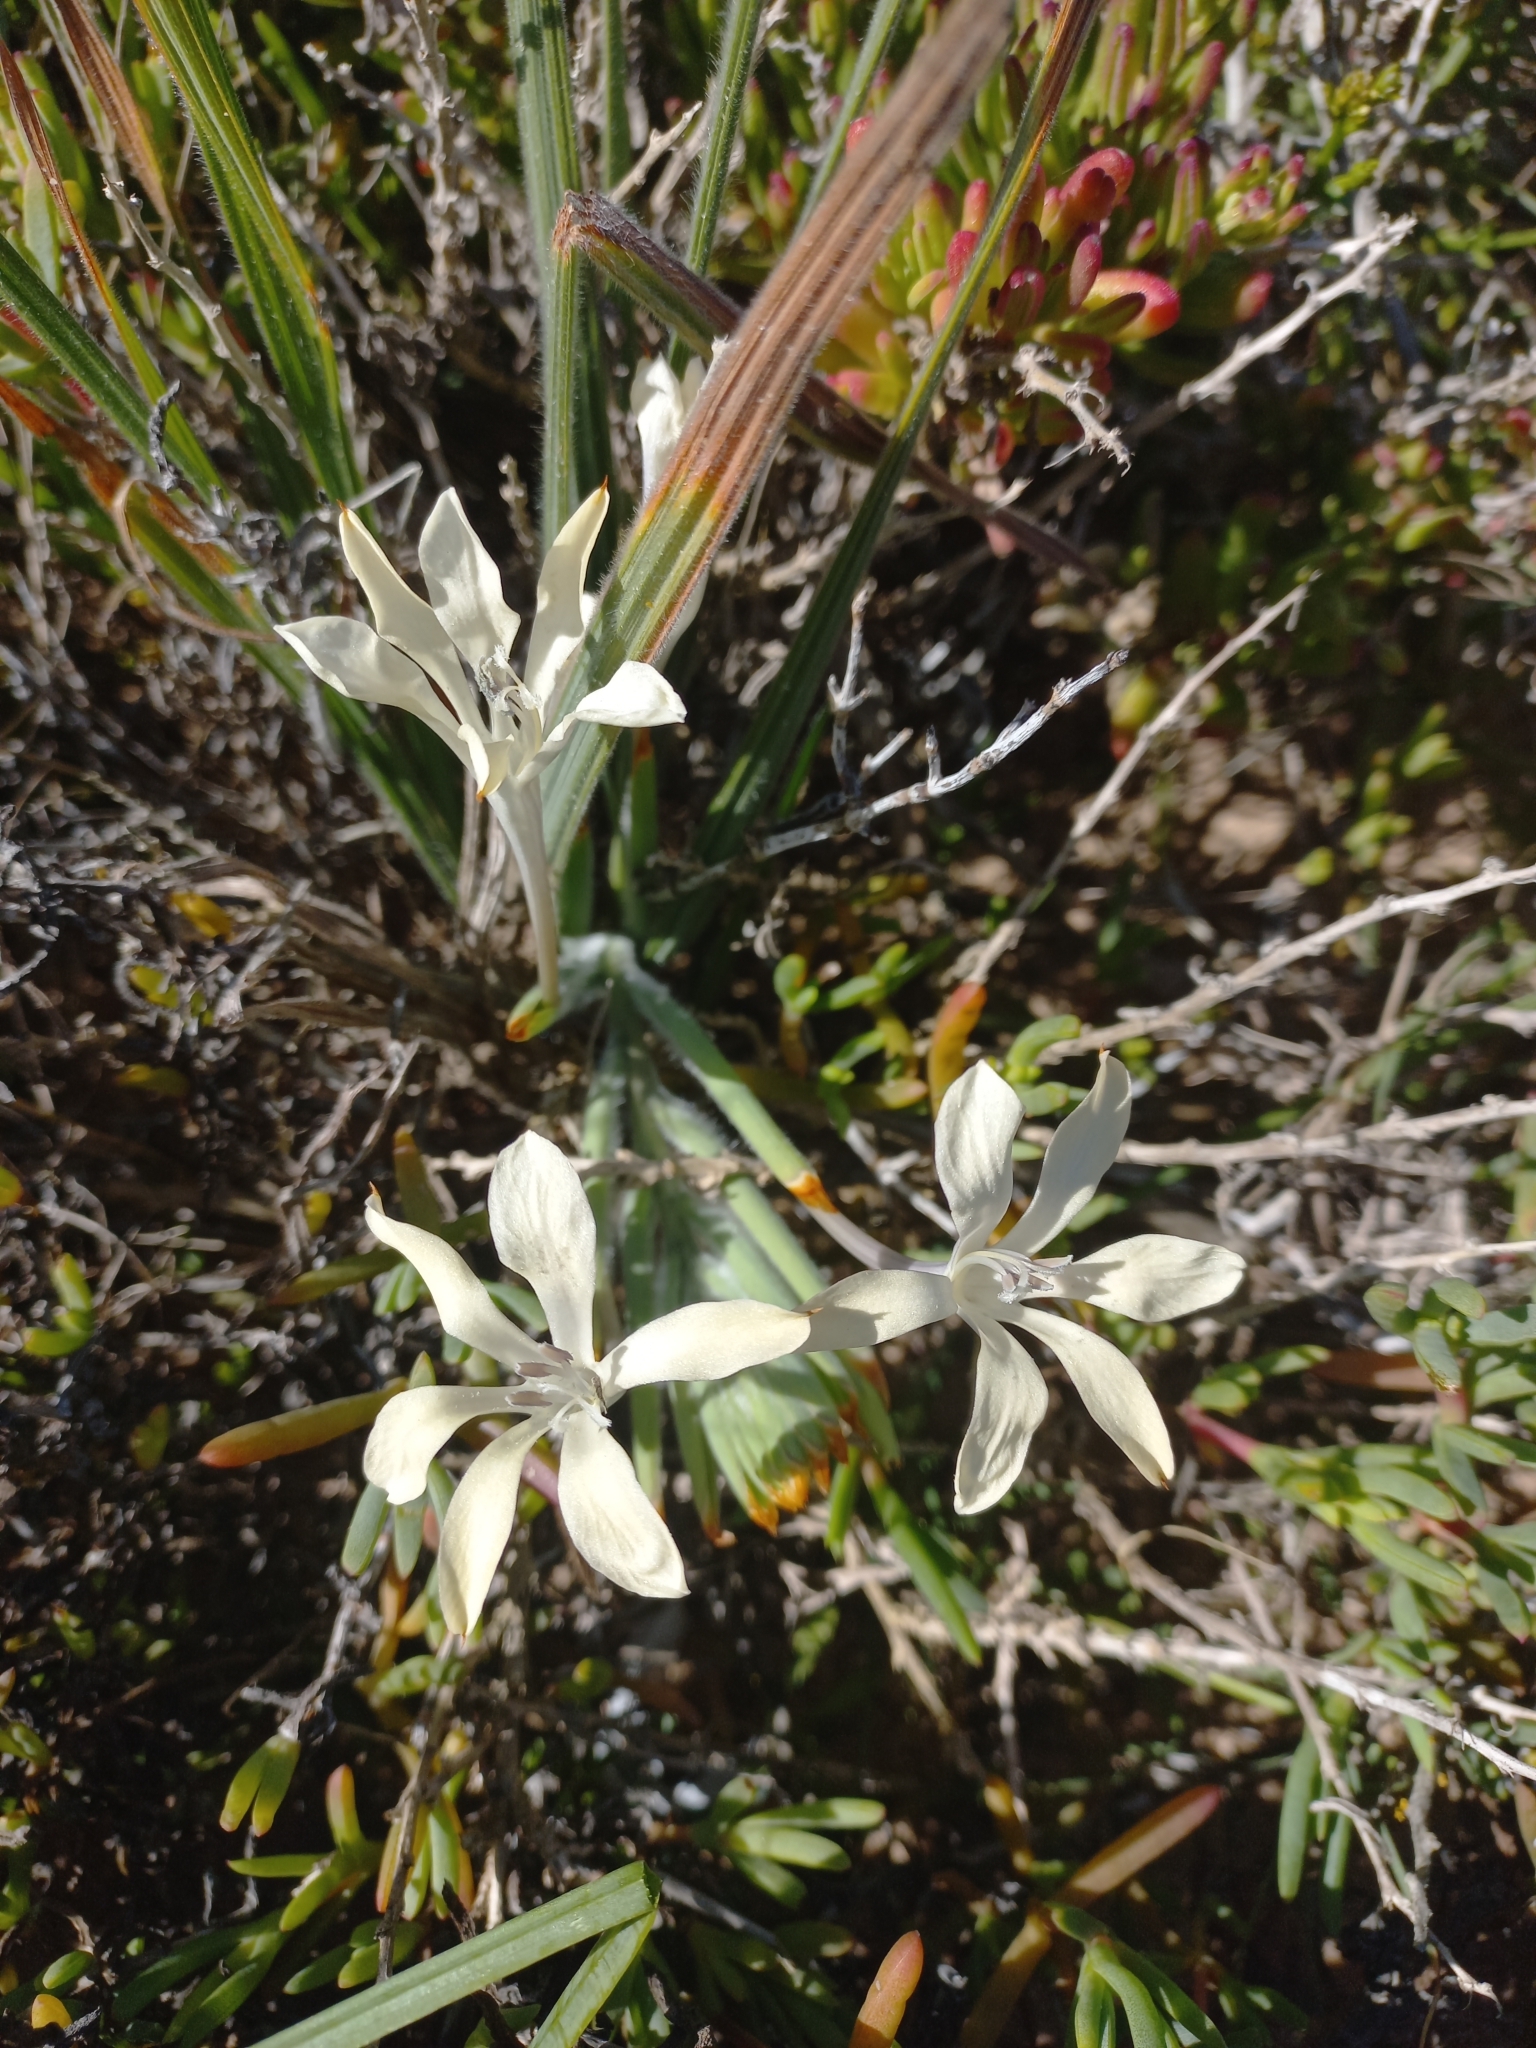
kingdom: Plantae
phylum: Tracheophyta
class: Liliopsida
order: Asparagales
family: Iridaceae
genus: Babiana
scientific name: Babiana tubiflora
